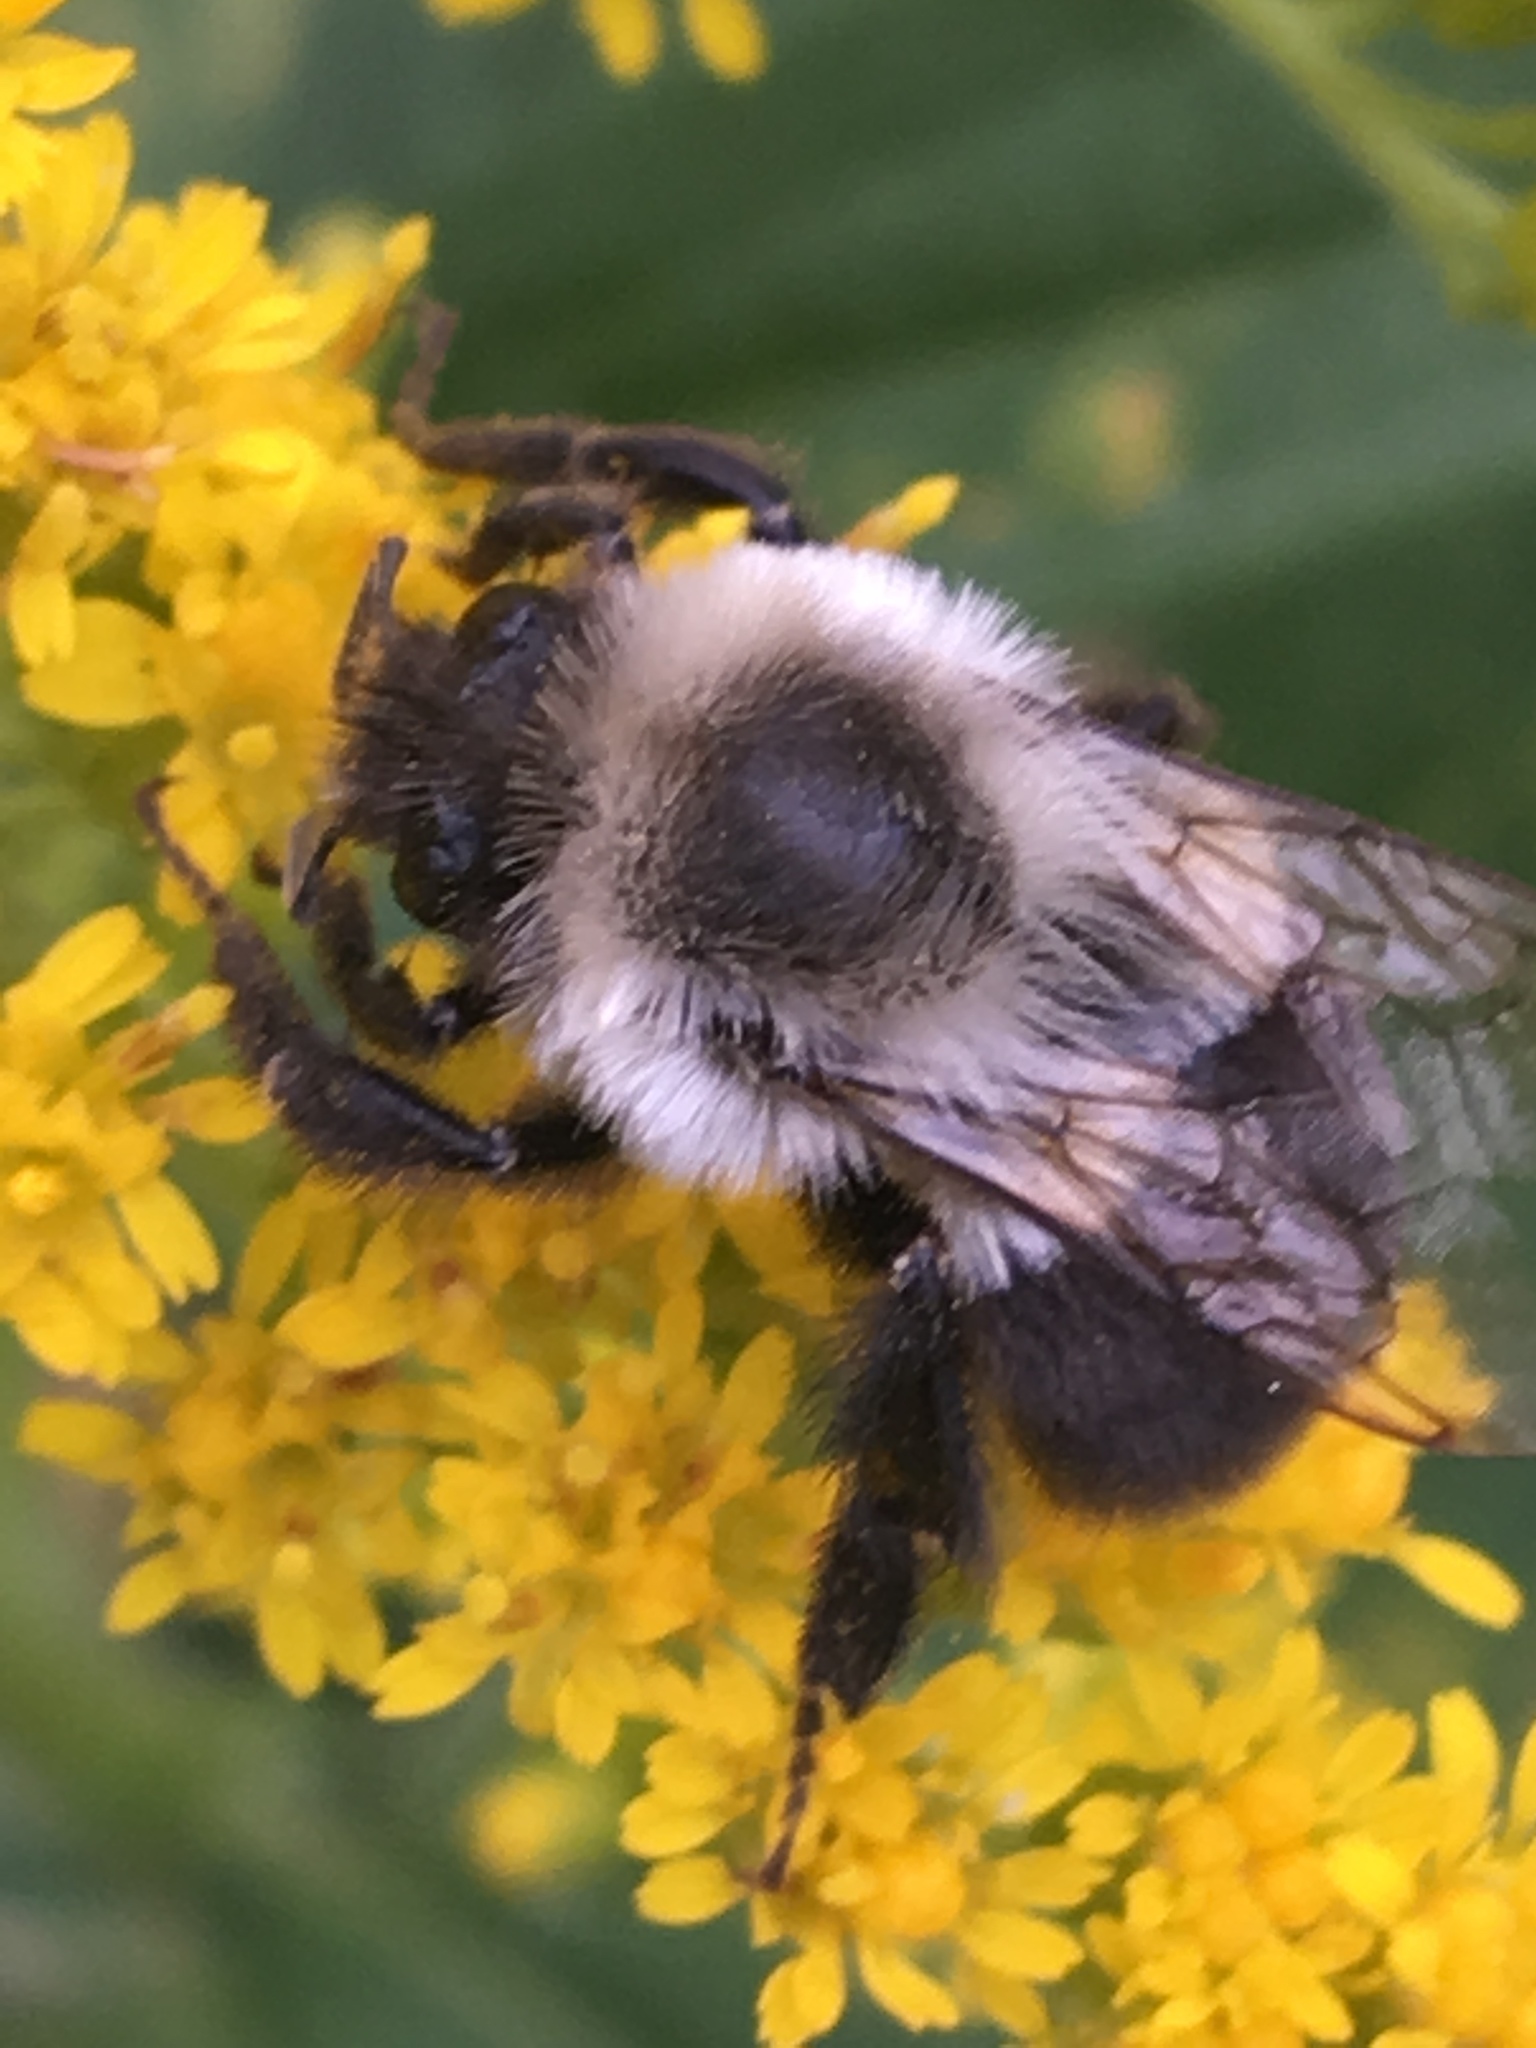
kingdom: Animalia
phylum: Arthropoda
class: Insecta
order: Hymenoptera
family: Apidae
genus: Bombus
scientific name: Bombus impatiens
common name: Common eastern bumble bee
